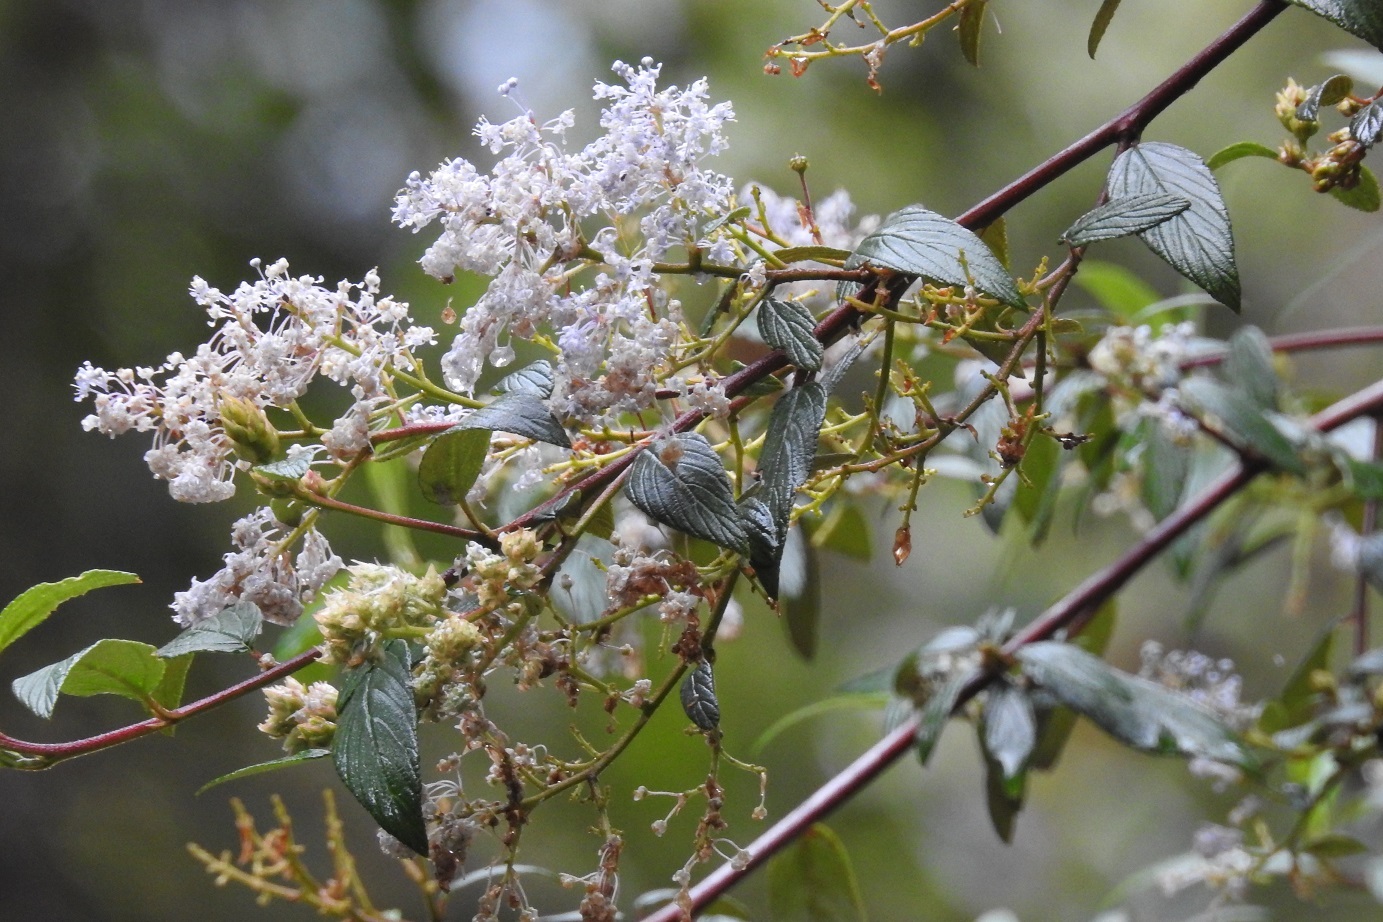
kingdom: Plantae
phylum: Tracheophyta
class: Magnoliopsida
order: Rosales
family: Rhamnaceae
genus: Ceanothus
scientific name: Ceanothus caeruleus
